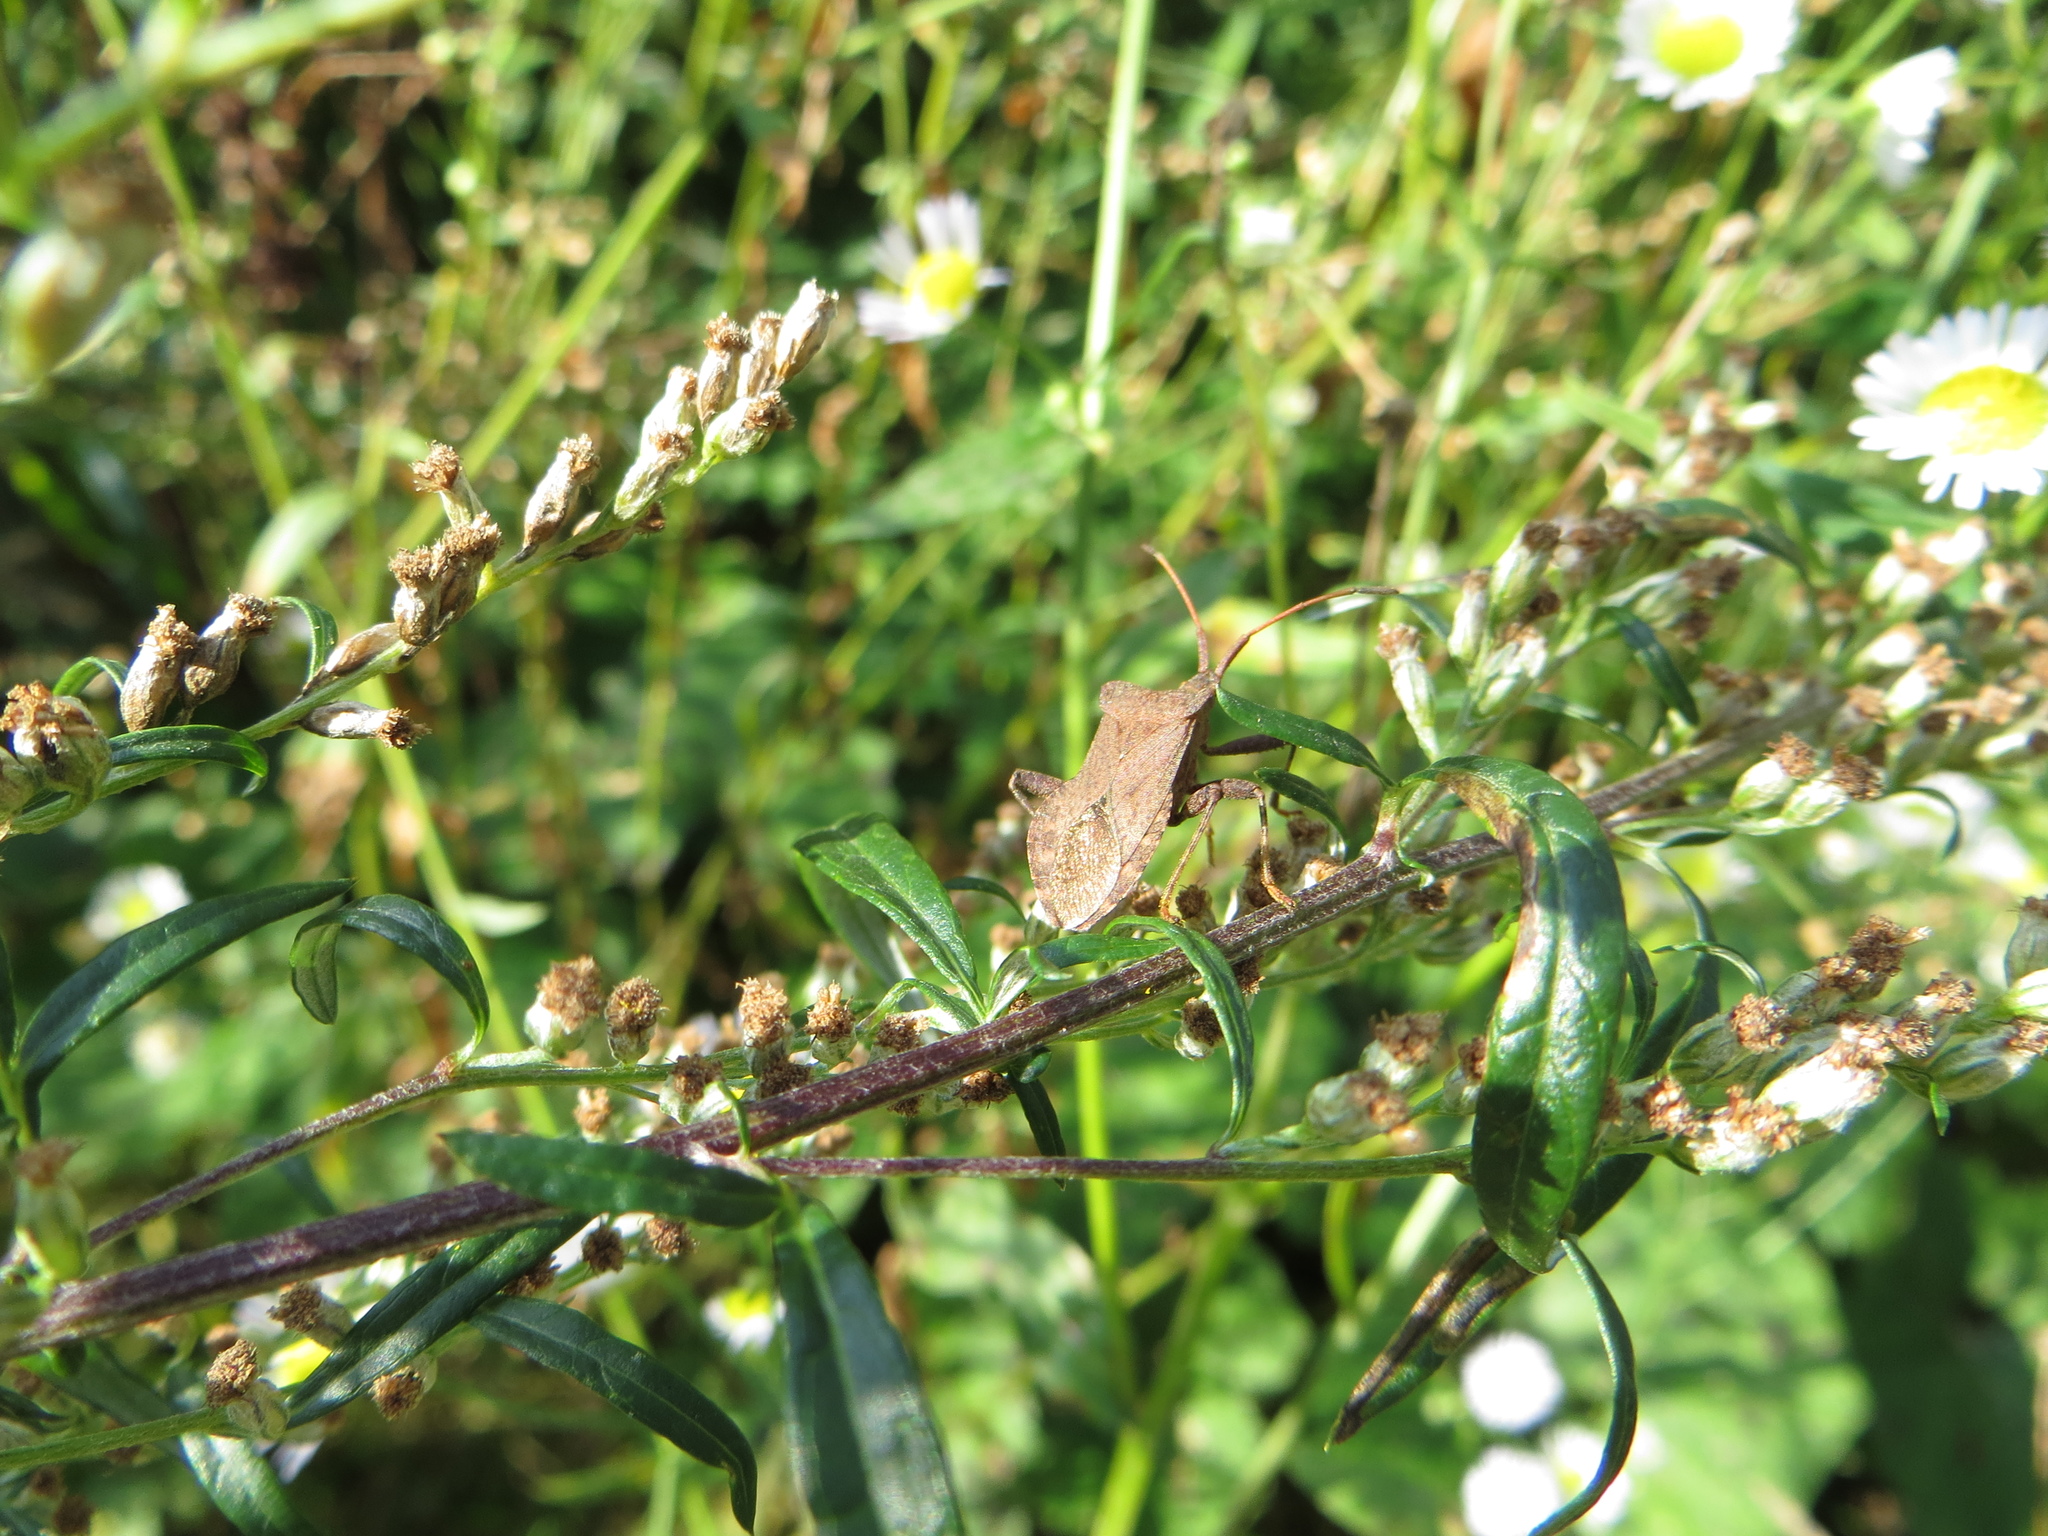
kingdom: Animalia
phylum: Arthropoda
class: Insecta
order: Hemiptera
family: Coreidae
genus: Coreus
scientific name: Coreus marginatus
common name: Dock bug
